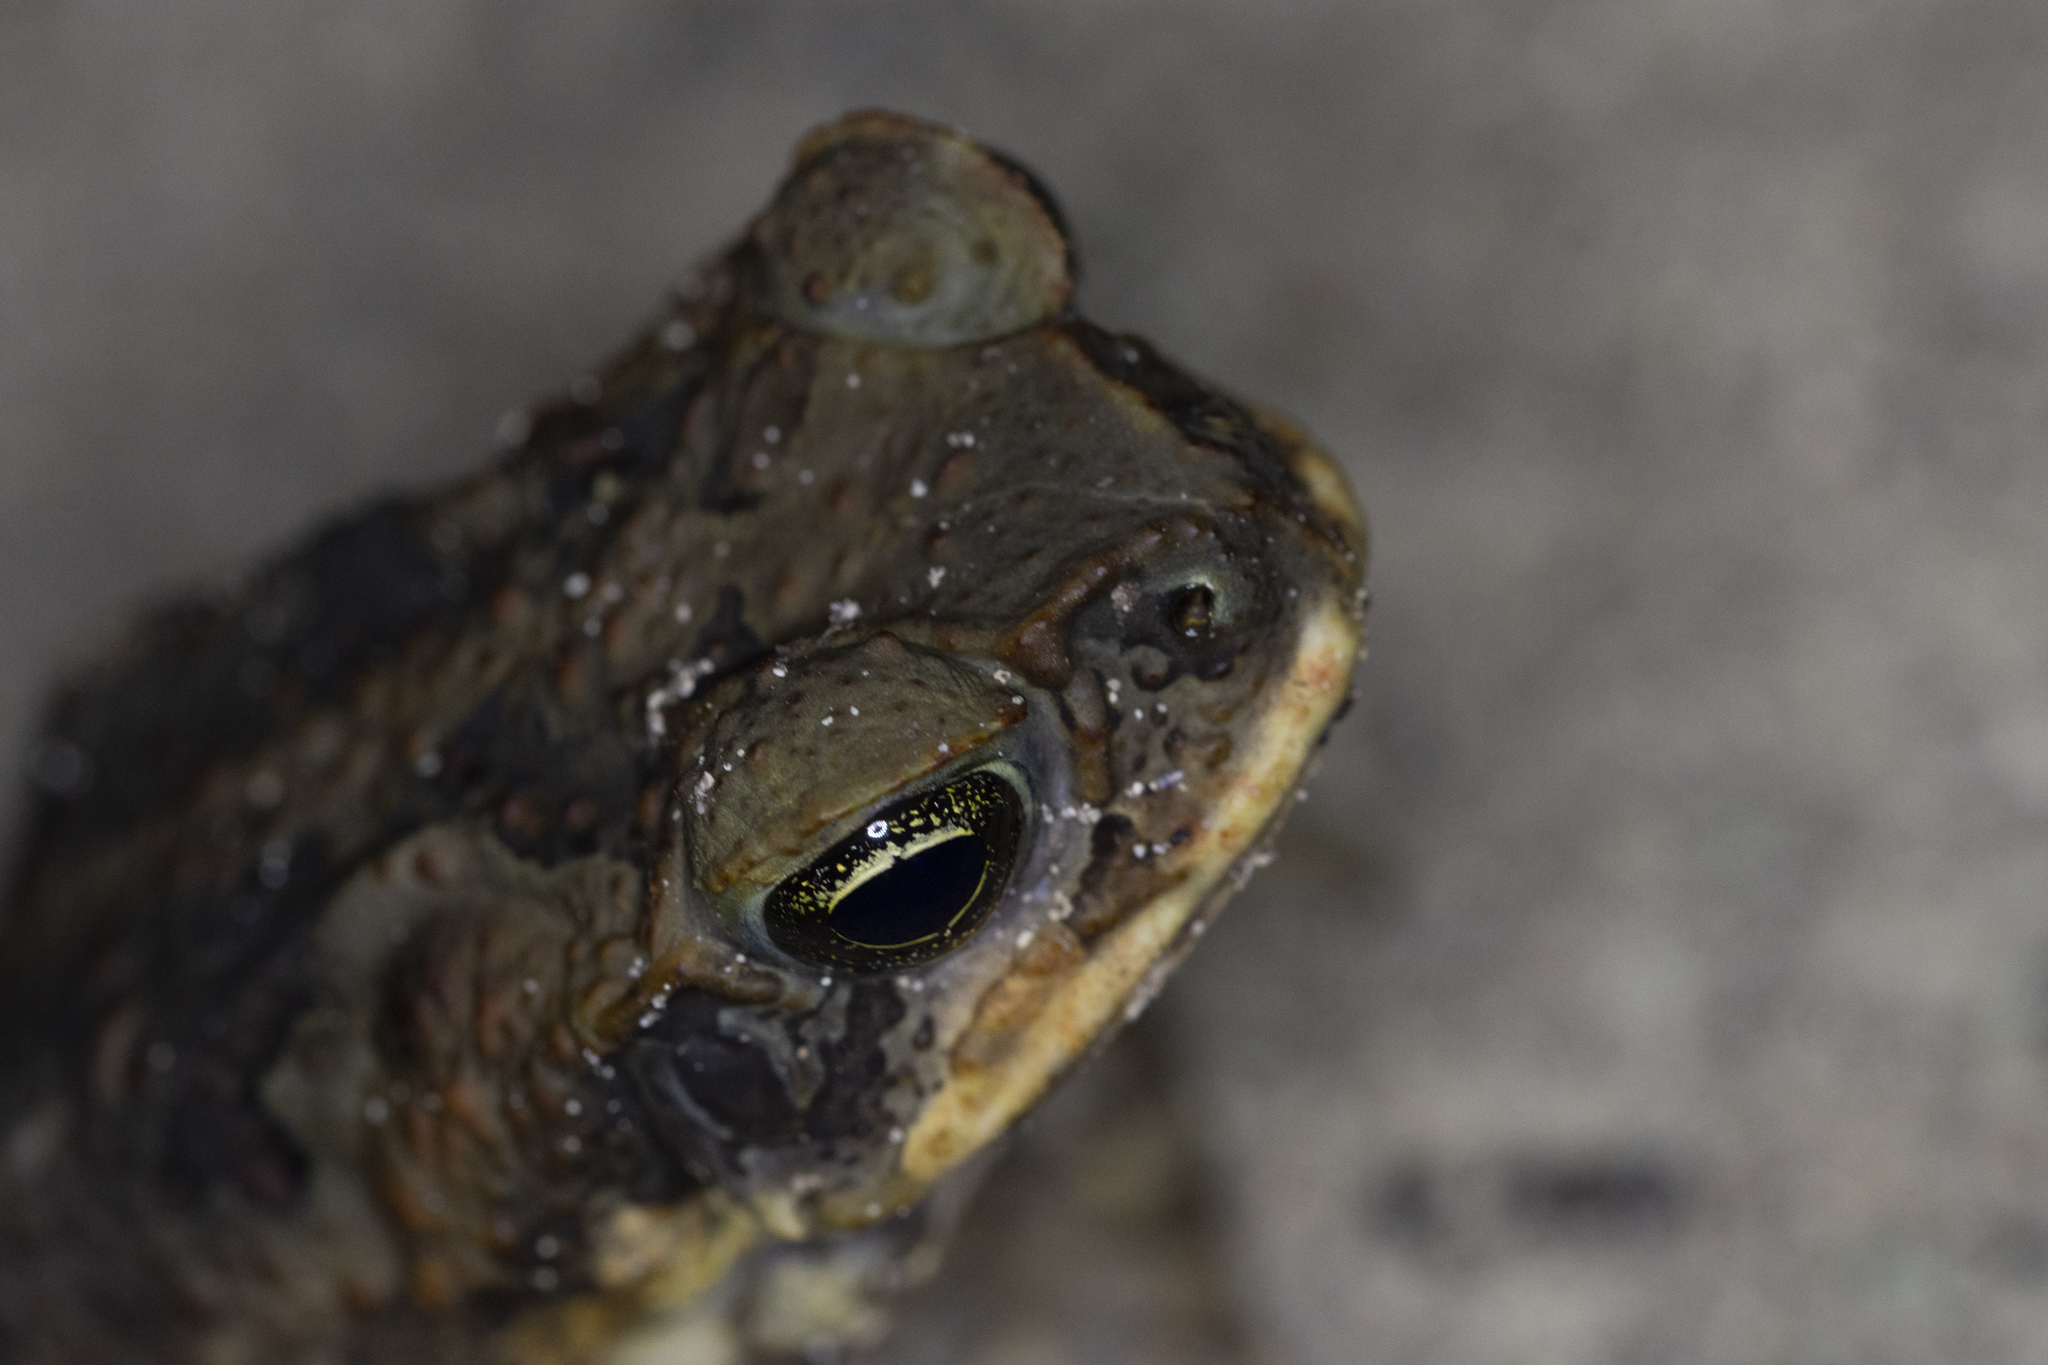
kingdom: Animalia
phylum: Chordata
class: Amphibia
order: Anura
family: Bufonidae
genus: Rhinella
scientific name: Rhinella marina
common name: Cane toad
